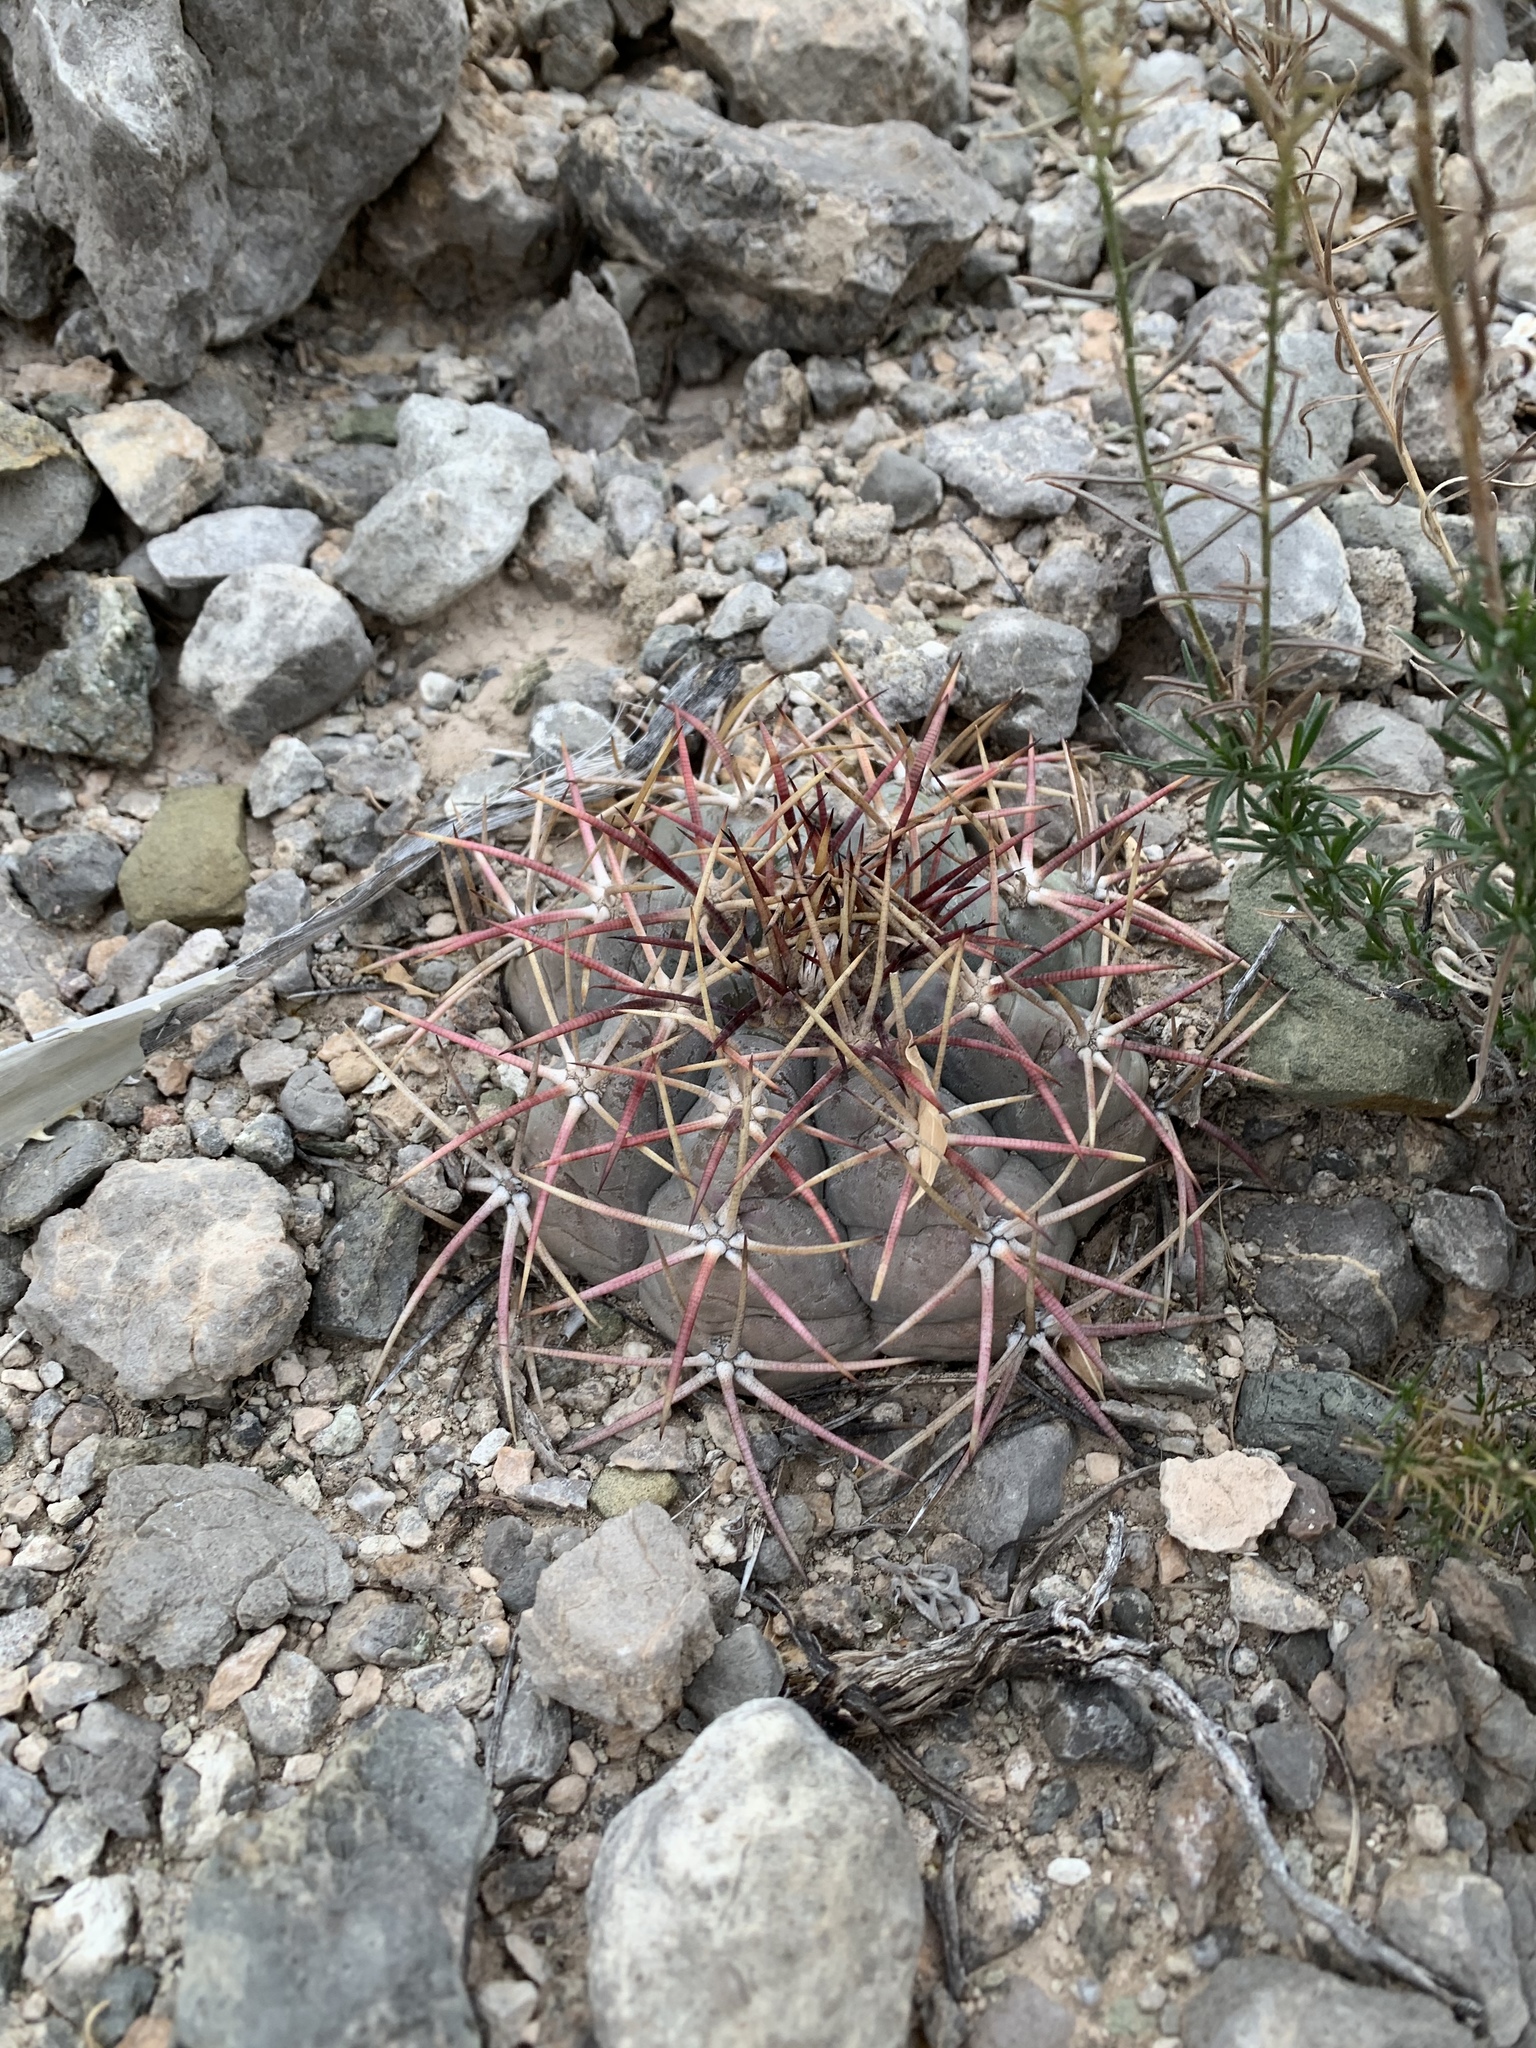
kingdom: Plantae
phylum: Tracheophyta
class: Magnoliopsida
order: Caryophyllales
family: Cactaceae
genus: Echinocactus
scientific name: Echinocactus horizonthalonius
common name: Devilshead
